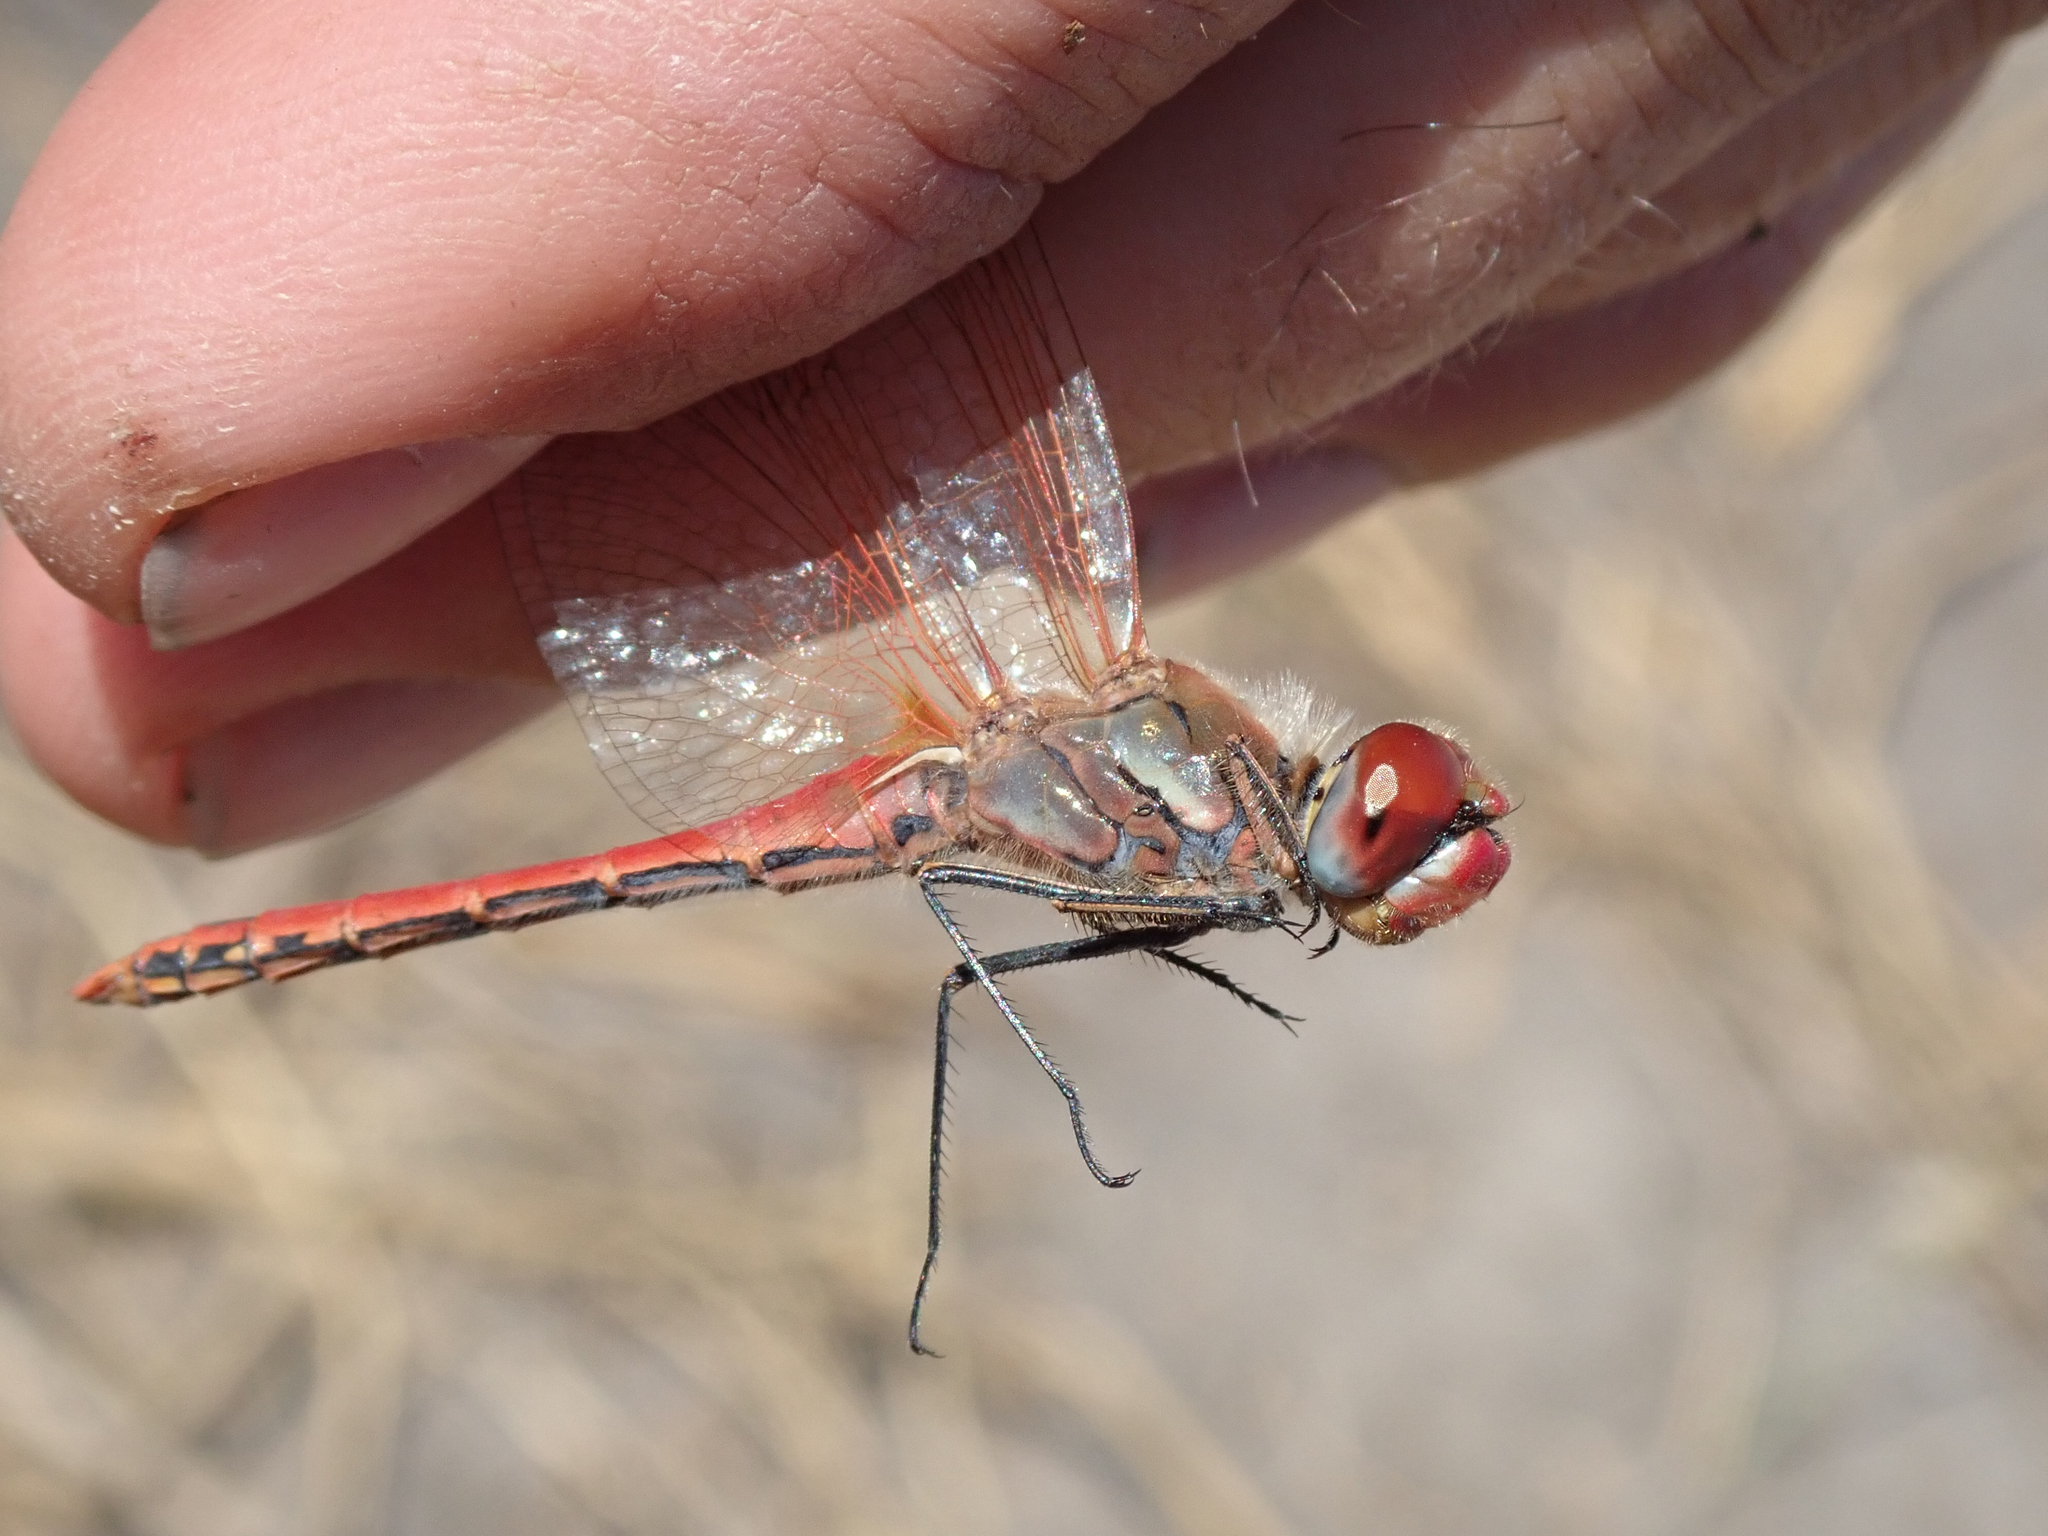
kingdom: Animalia
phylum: Arthropoda
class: Insecta
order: Odonata
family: Libellulidae
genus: Sympetrum
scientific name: Sympetrum fonscolombii
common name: Red-veined darter
